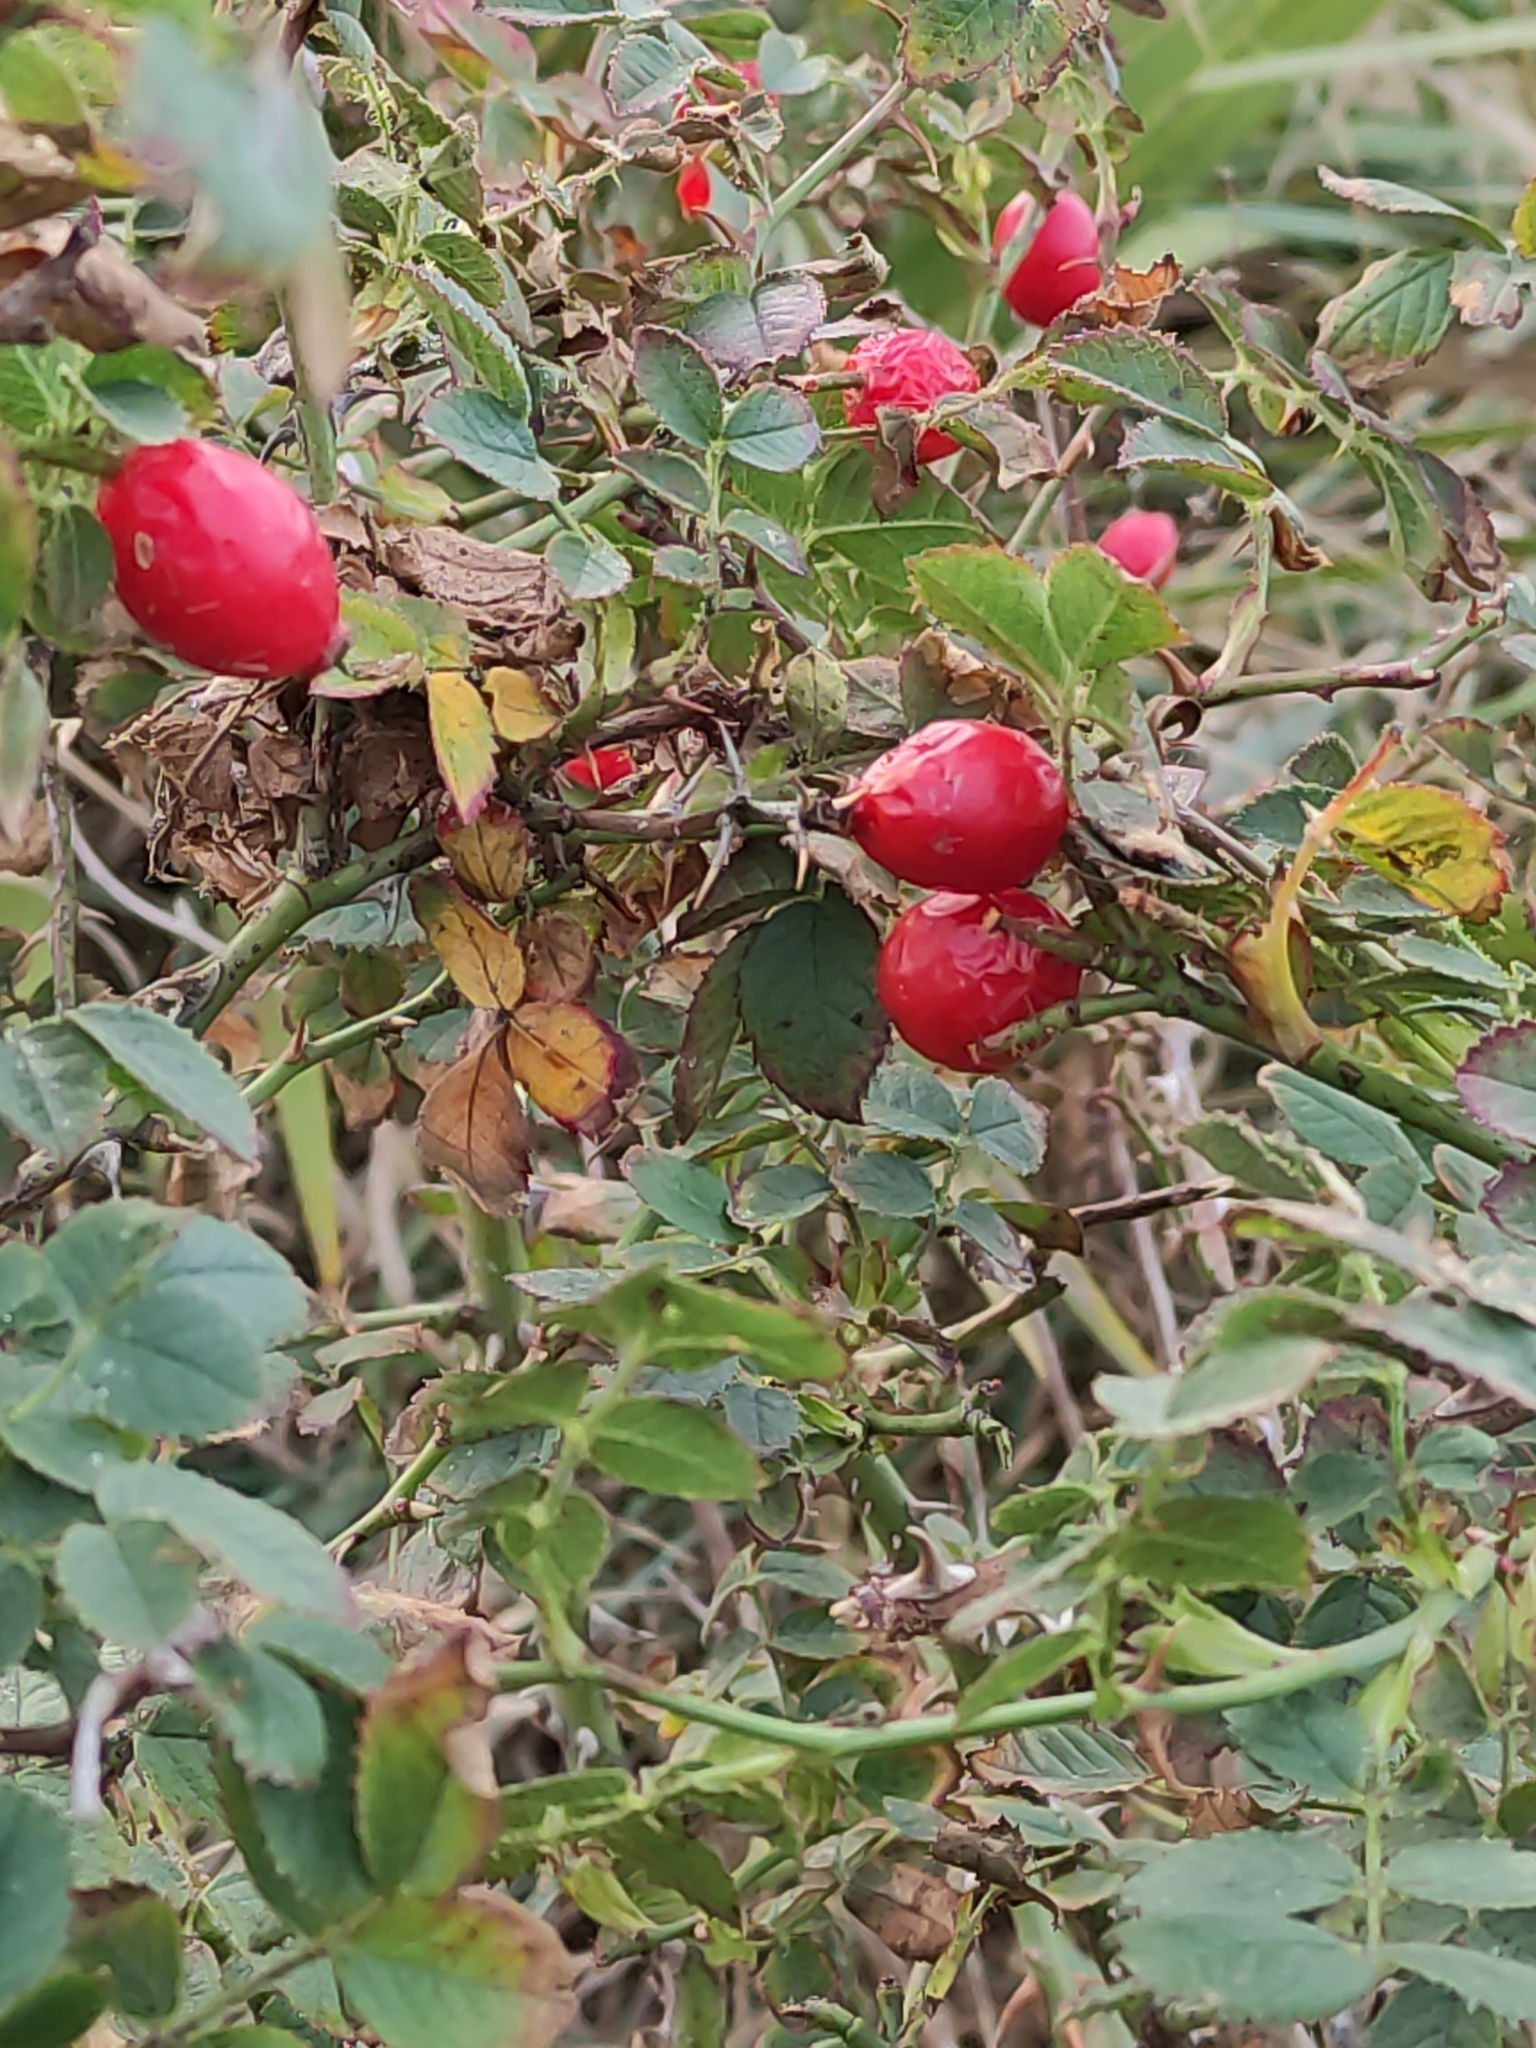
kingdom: Plantae
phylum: Tracheophyta
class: Magnoliopsida
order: Rosales
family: Rosaceae
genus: Rosa
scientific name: Rosa rubiginosa
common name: Sweet-briar
